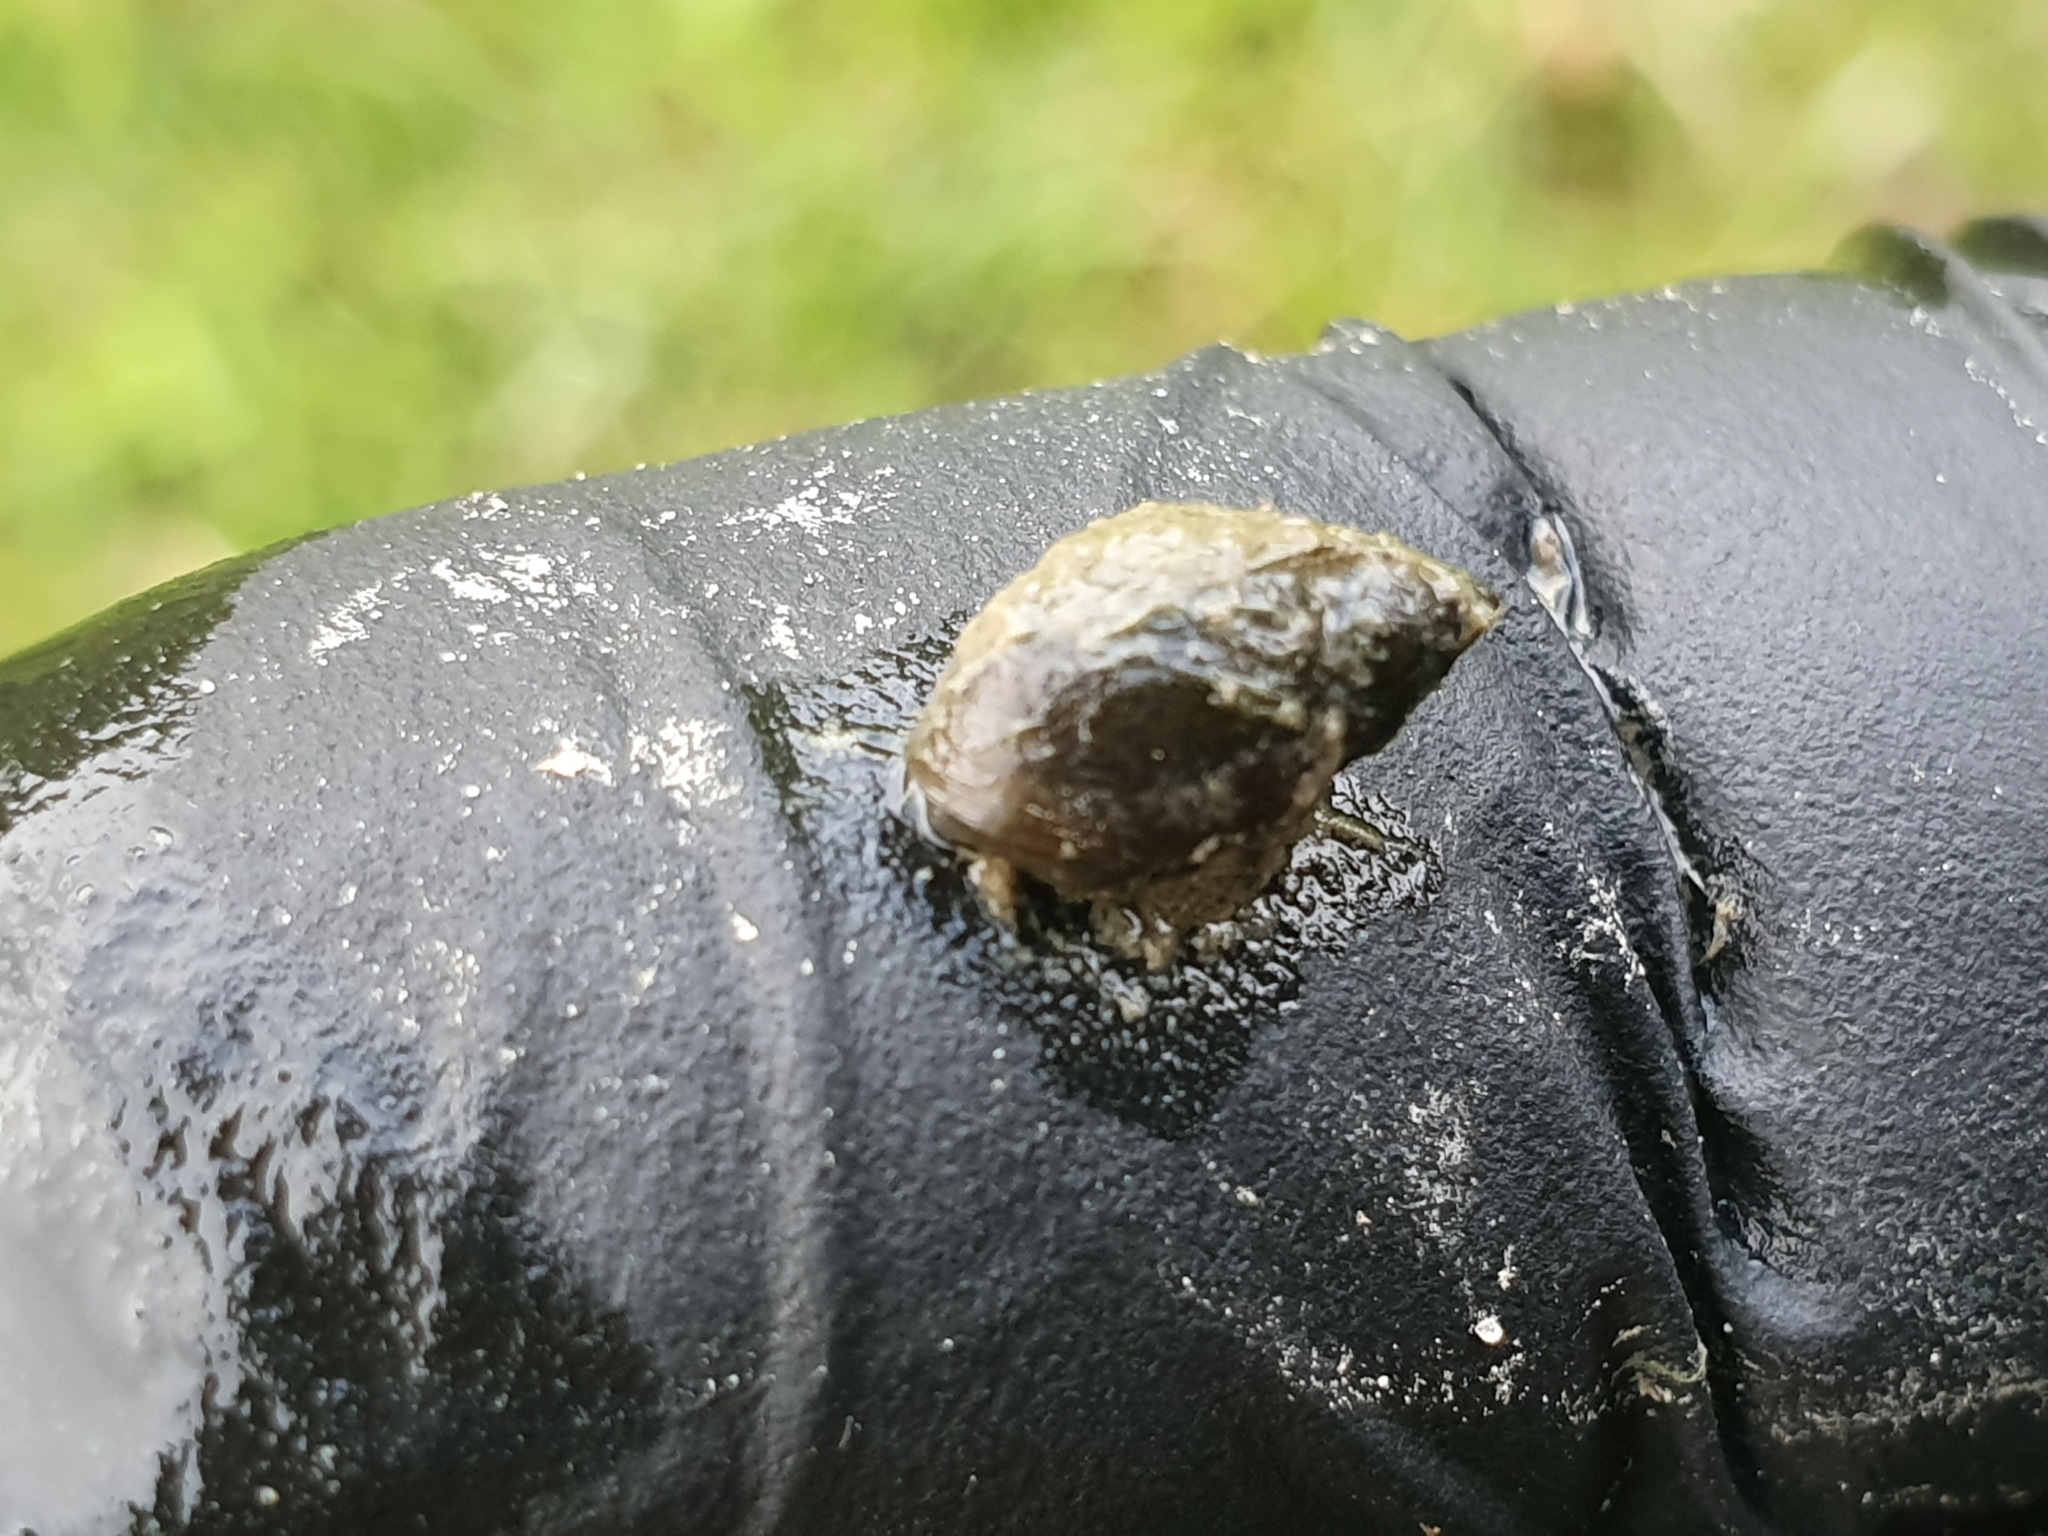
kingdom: Animalia
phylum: Mollusca
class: Gastropoda
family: Physidae
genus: Physella
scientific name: Physella acuta
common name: European physa
